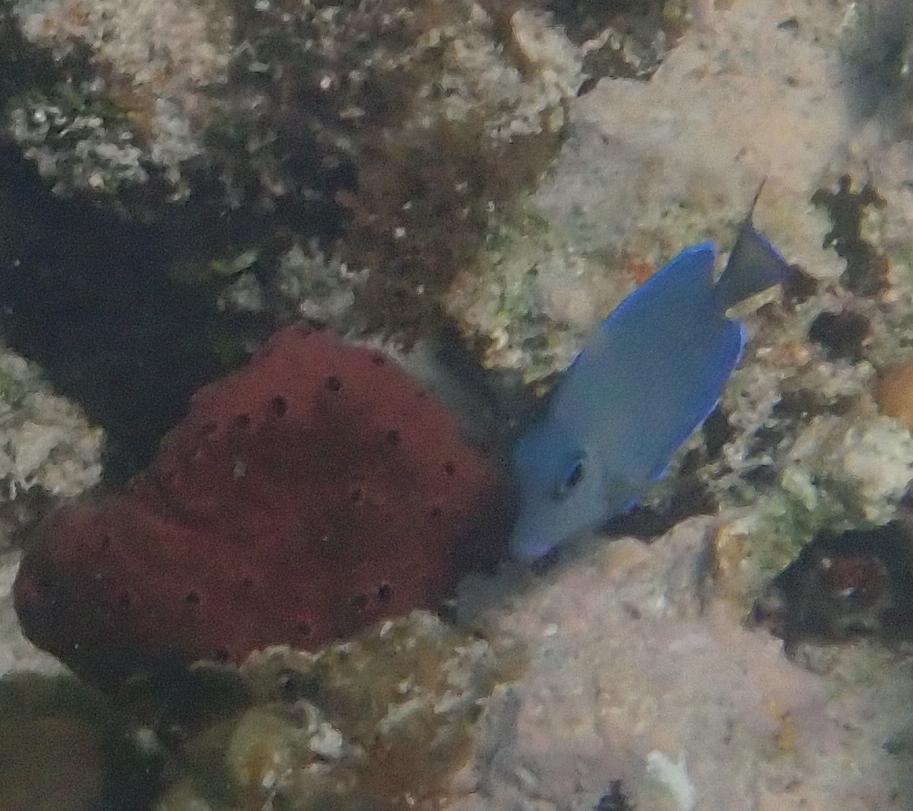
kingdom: Animalia
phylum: Chordata
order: Perciformes
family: Acanthuridae
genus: Acanthurus
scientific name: Acanthurus coeruleus
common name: Blue tang
